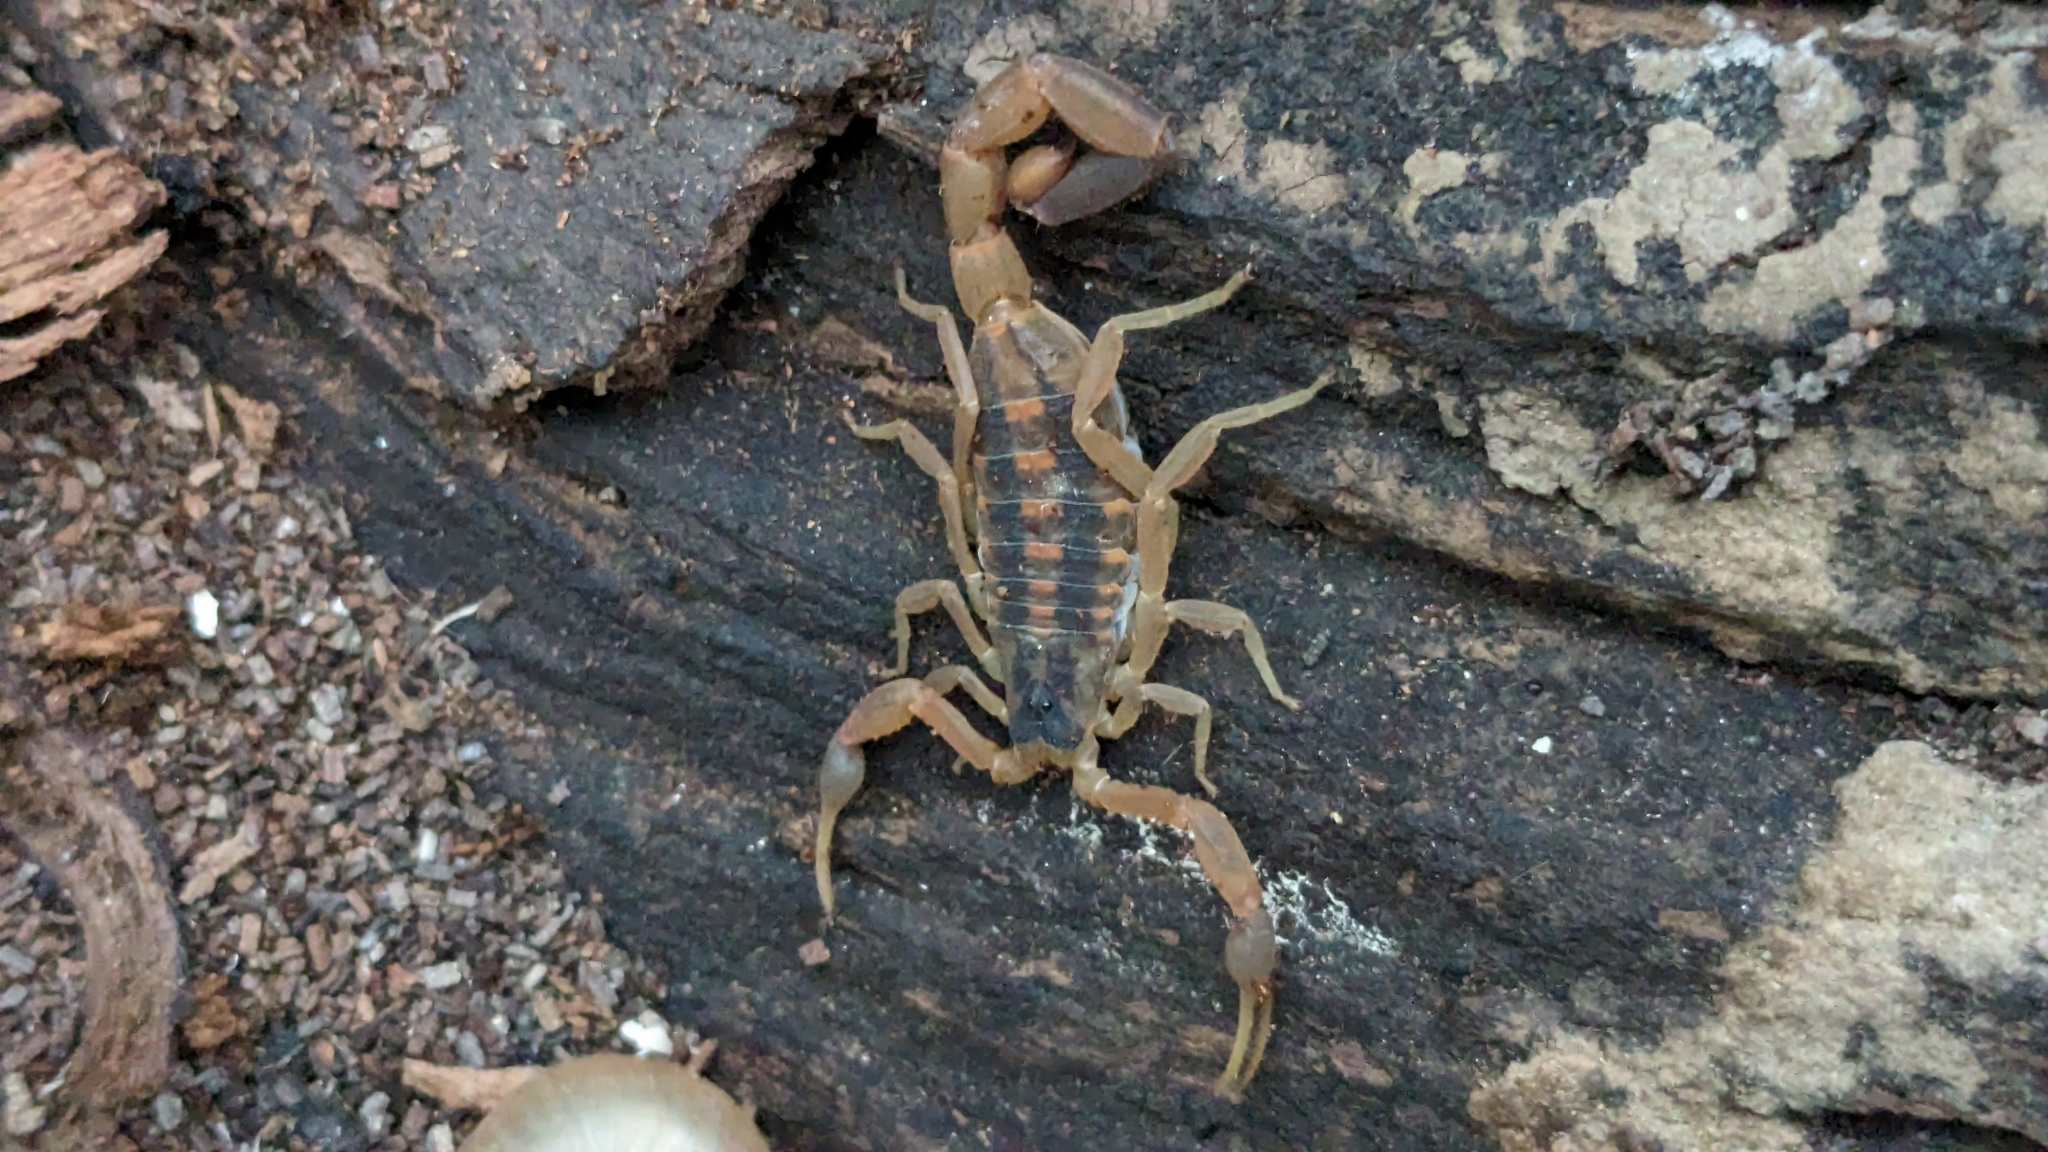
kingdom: Animalia
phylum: Arthropoda
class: Arachnida
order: Scorpiones
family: Buthidae
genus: Centruroides
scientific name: Centruroides vittatus
